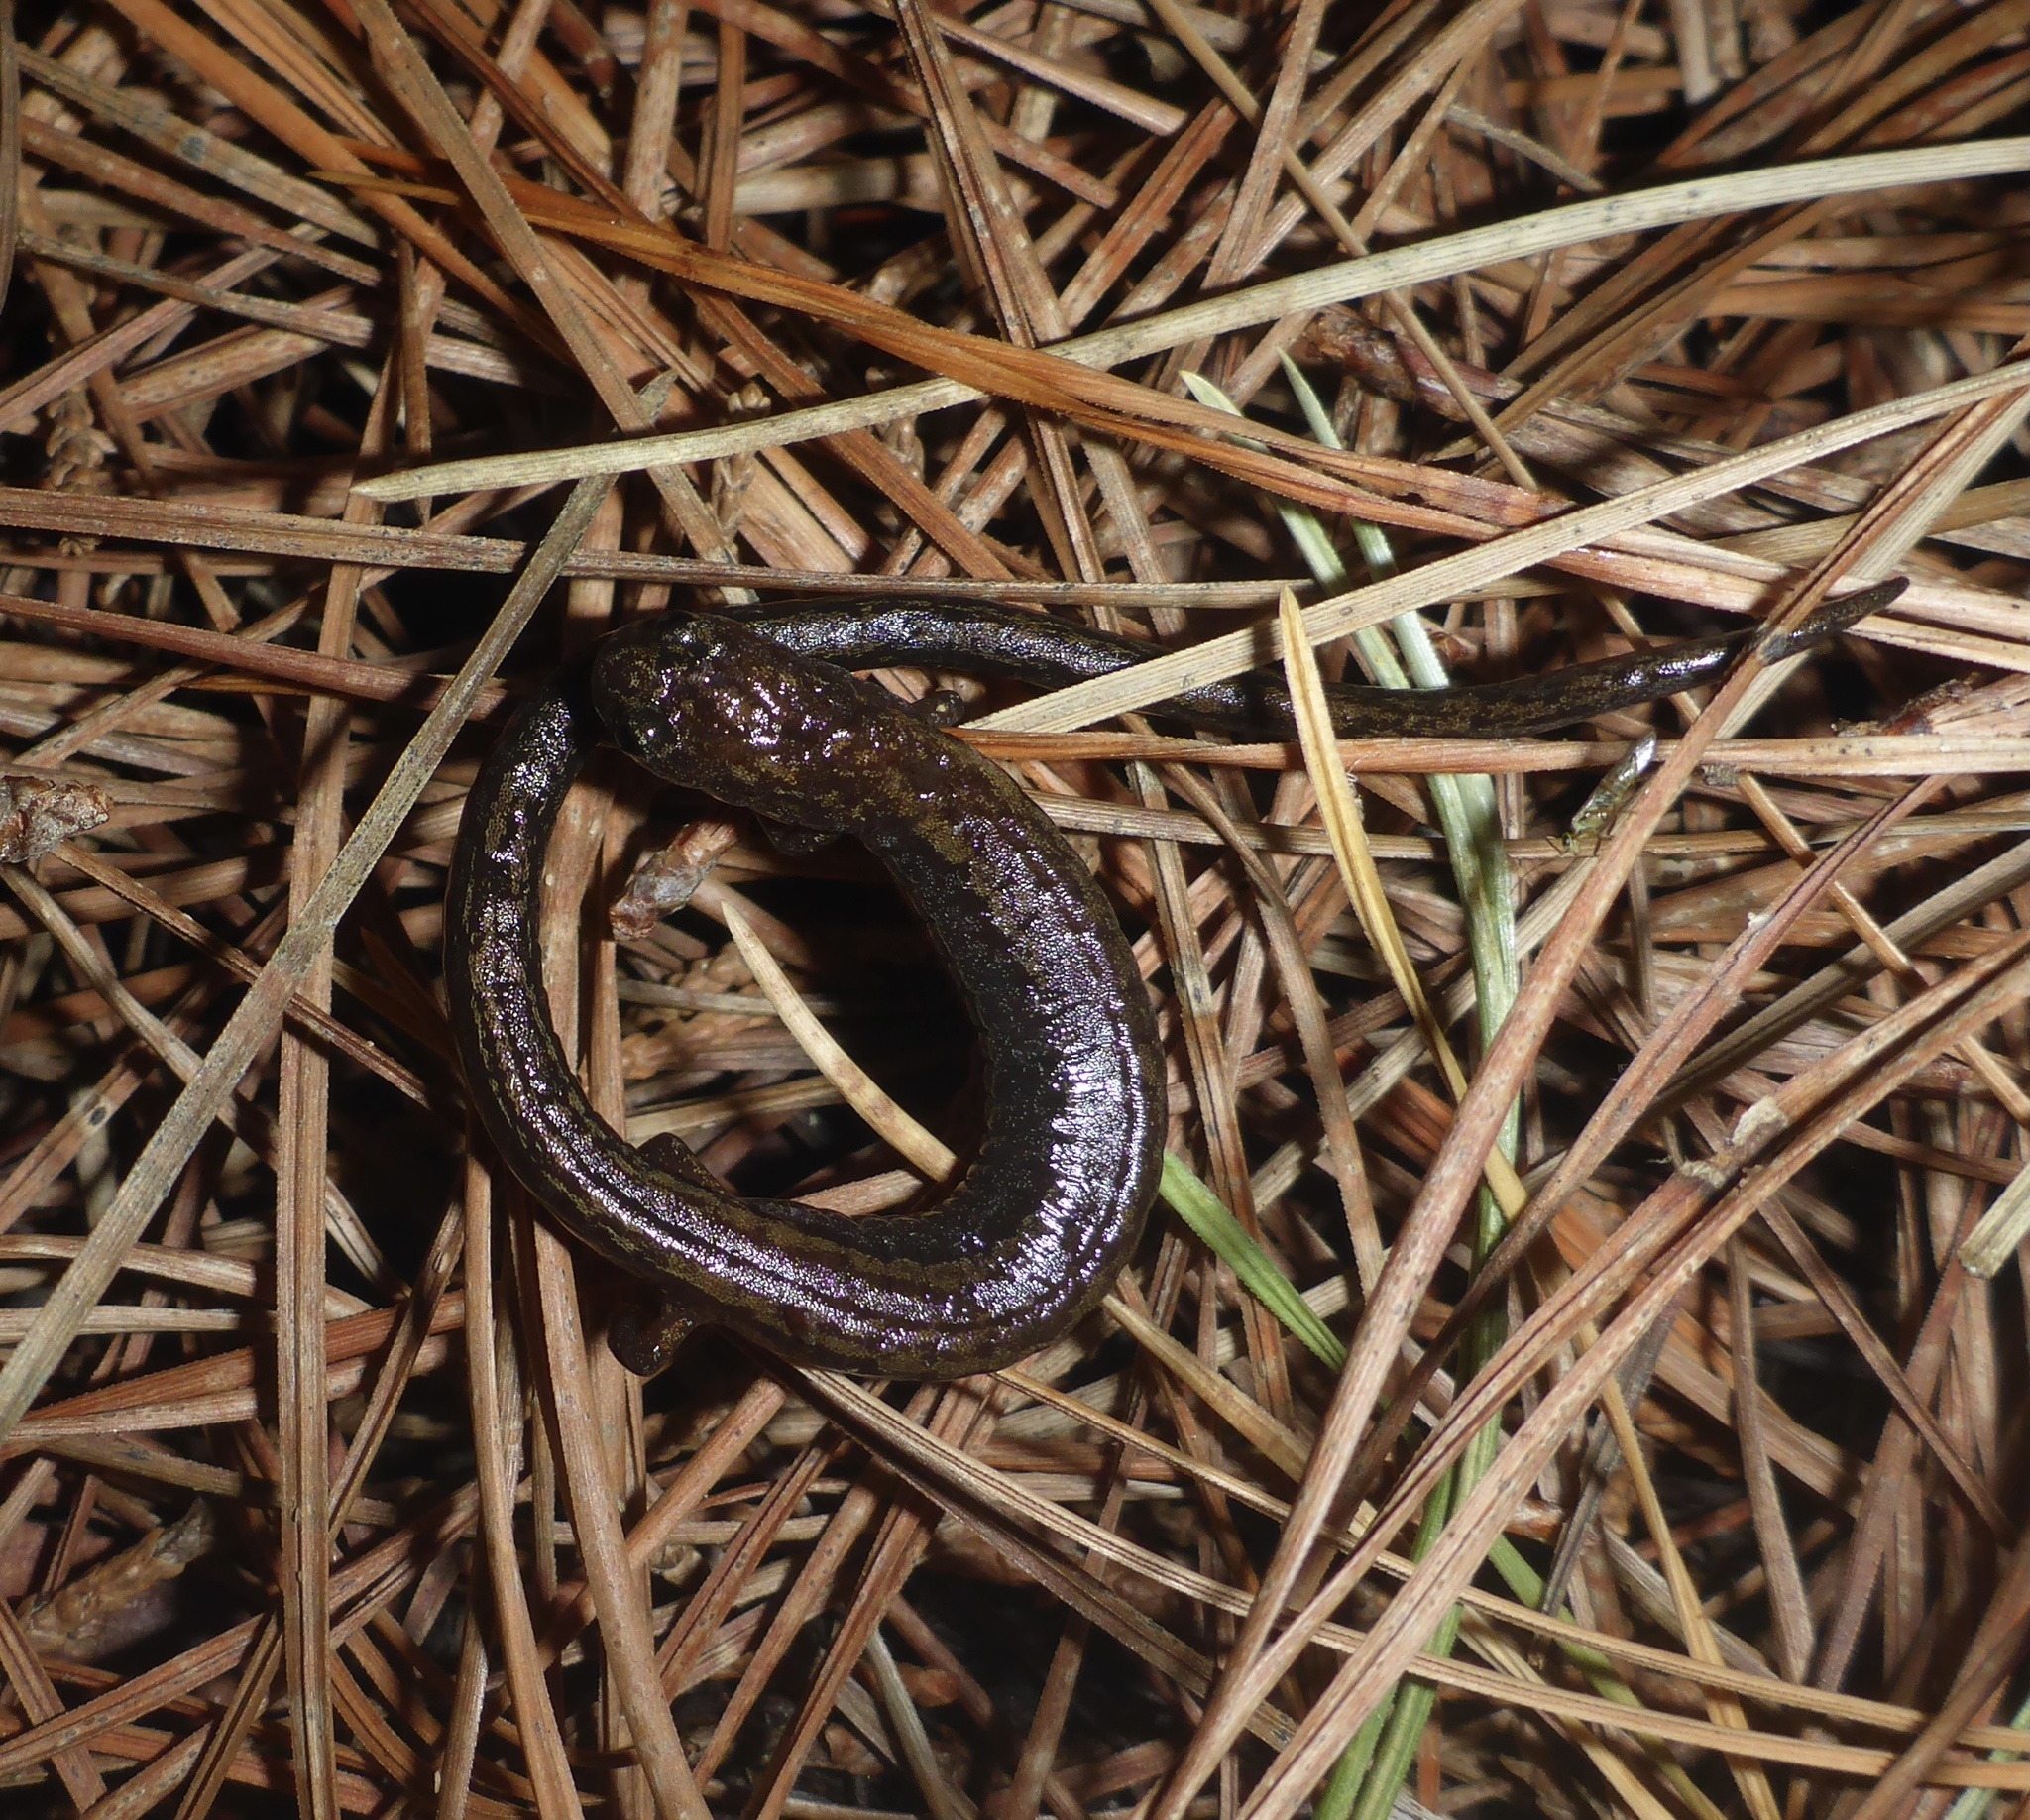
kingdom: Animalia
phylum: Chordata
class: Amphibia
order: Caudata
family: Plethodontidae
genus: Batrachoseps
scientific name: Batrachoseps attenuatus
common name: California slender salamander
